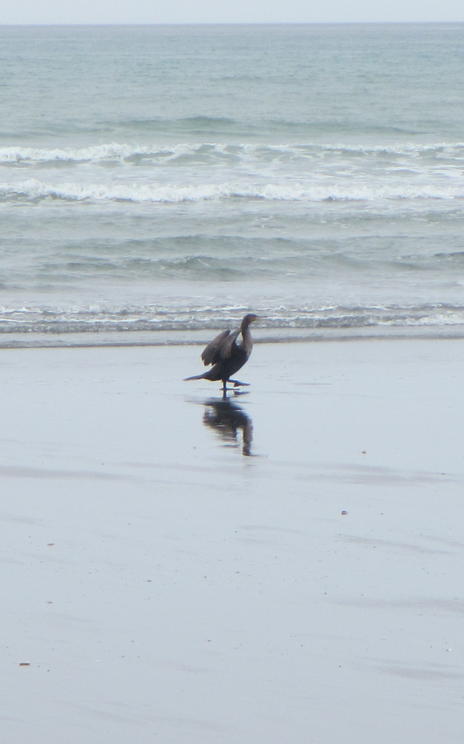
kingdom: Animalia
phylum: Chordata
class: Aves
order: Suliformes
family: Phalacrocoracidae
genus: Phalacrocorax
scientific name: Phalacrocorax carbo
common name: Great cormorant
